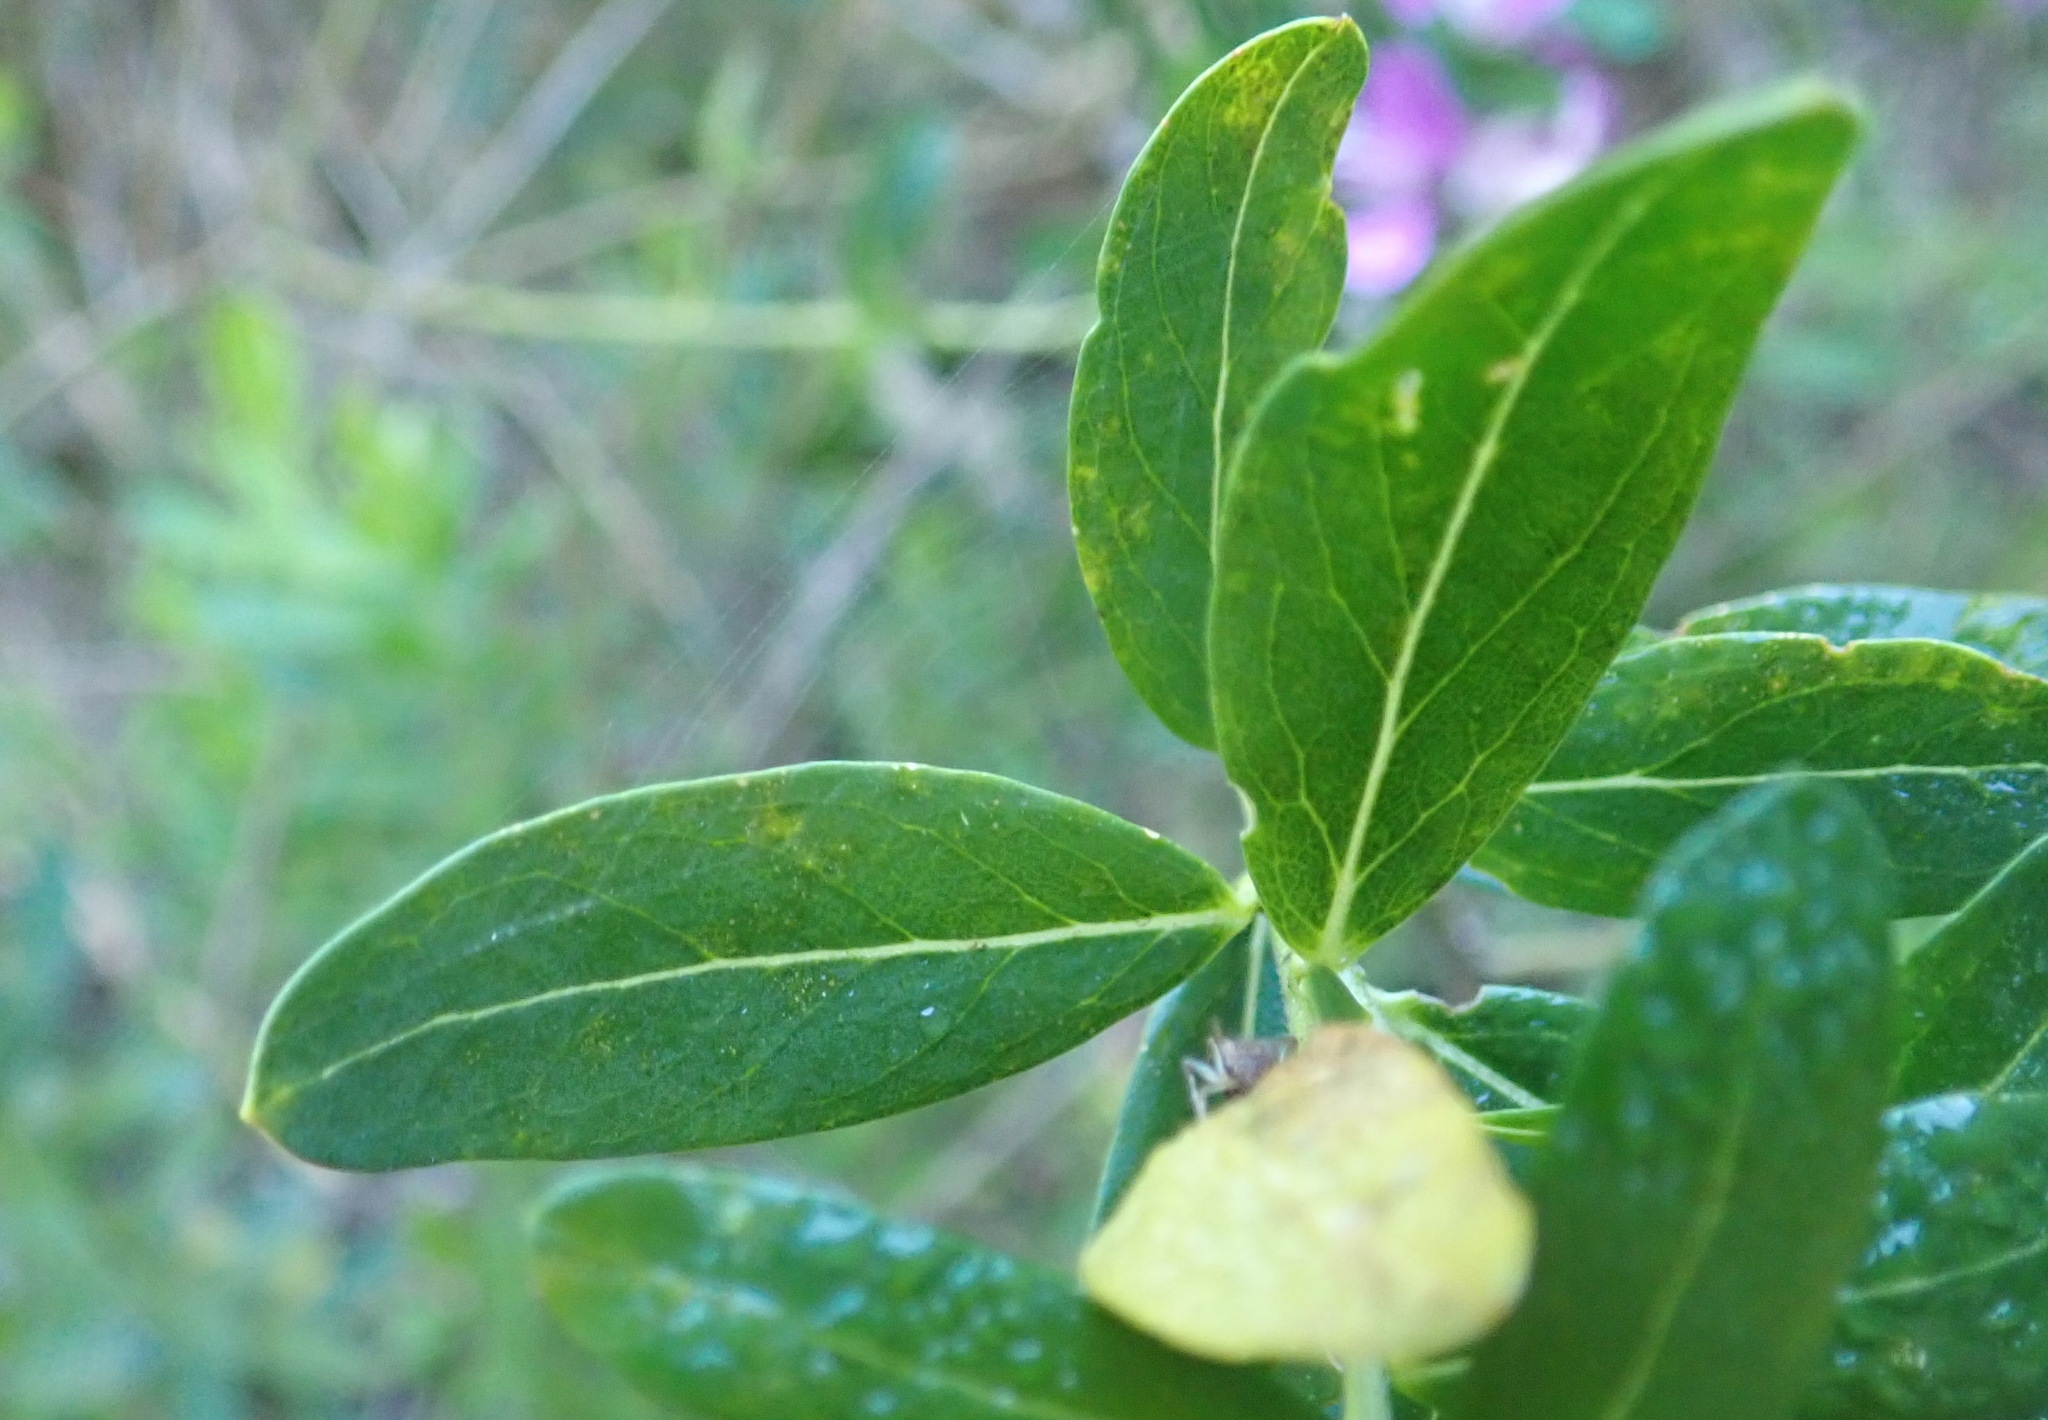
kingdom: Plantae
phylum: Tracheophyta
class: Magnoliopsida
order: Fabales
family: Polygalaceae
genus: Polygala
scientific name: Polygala myrtifolia
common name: Myrtle-leaf milkwort
